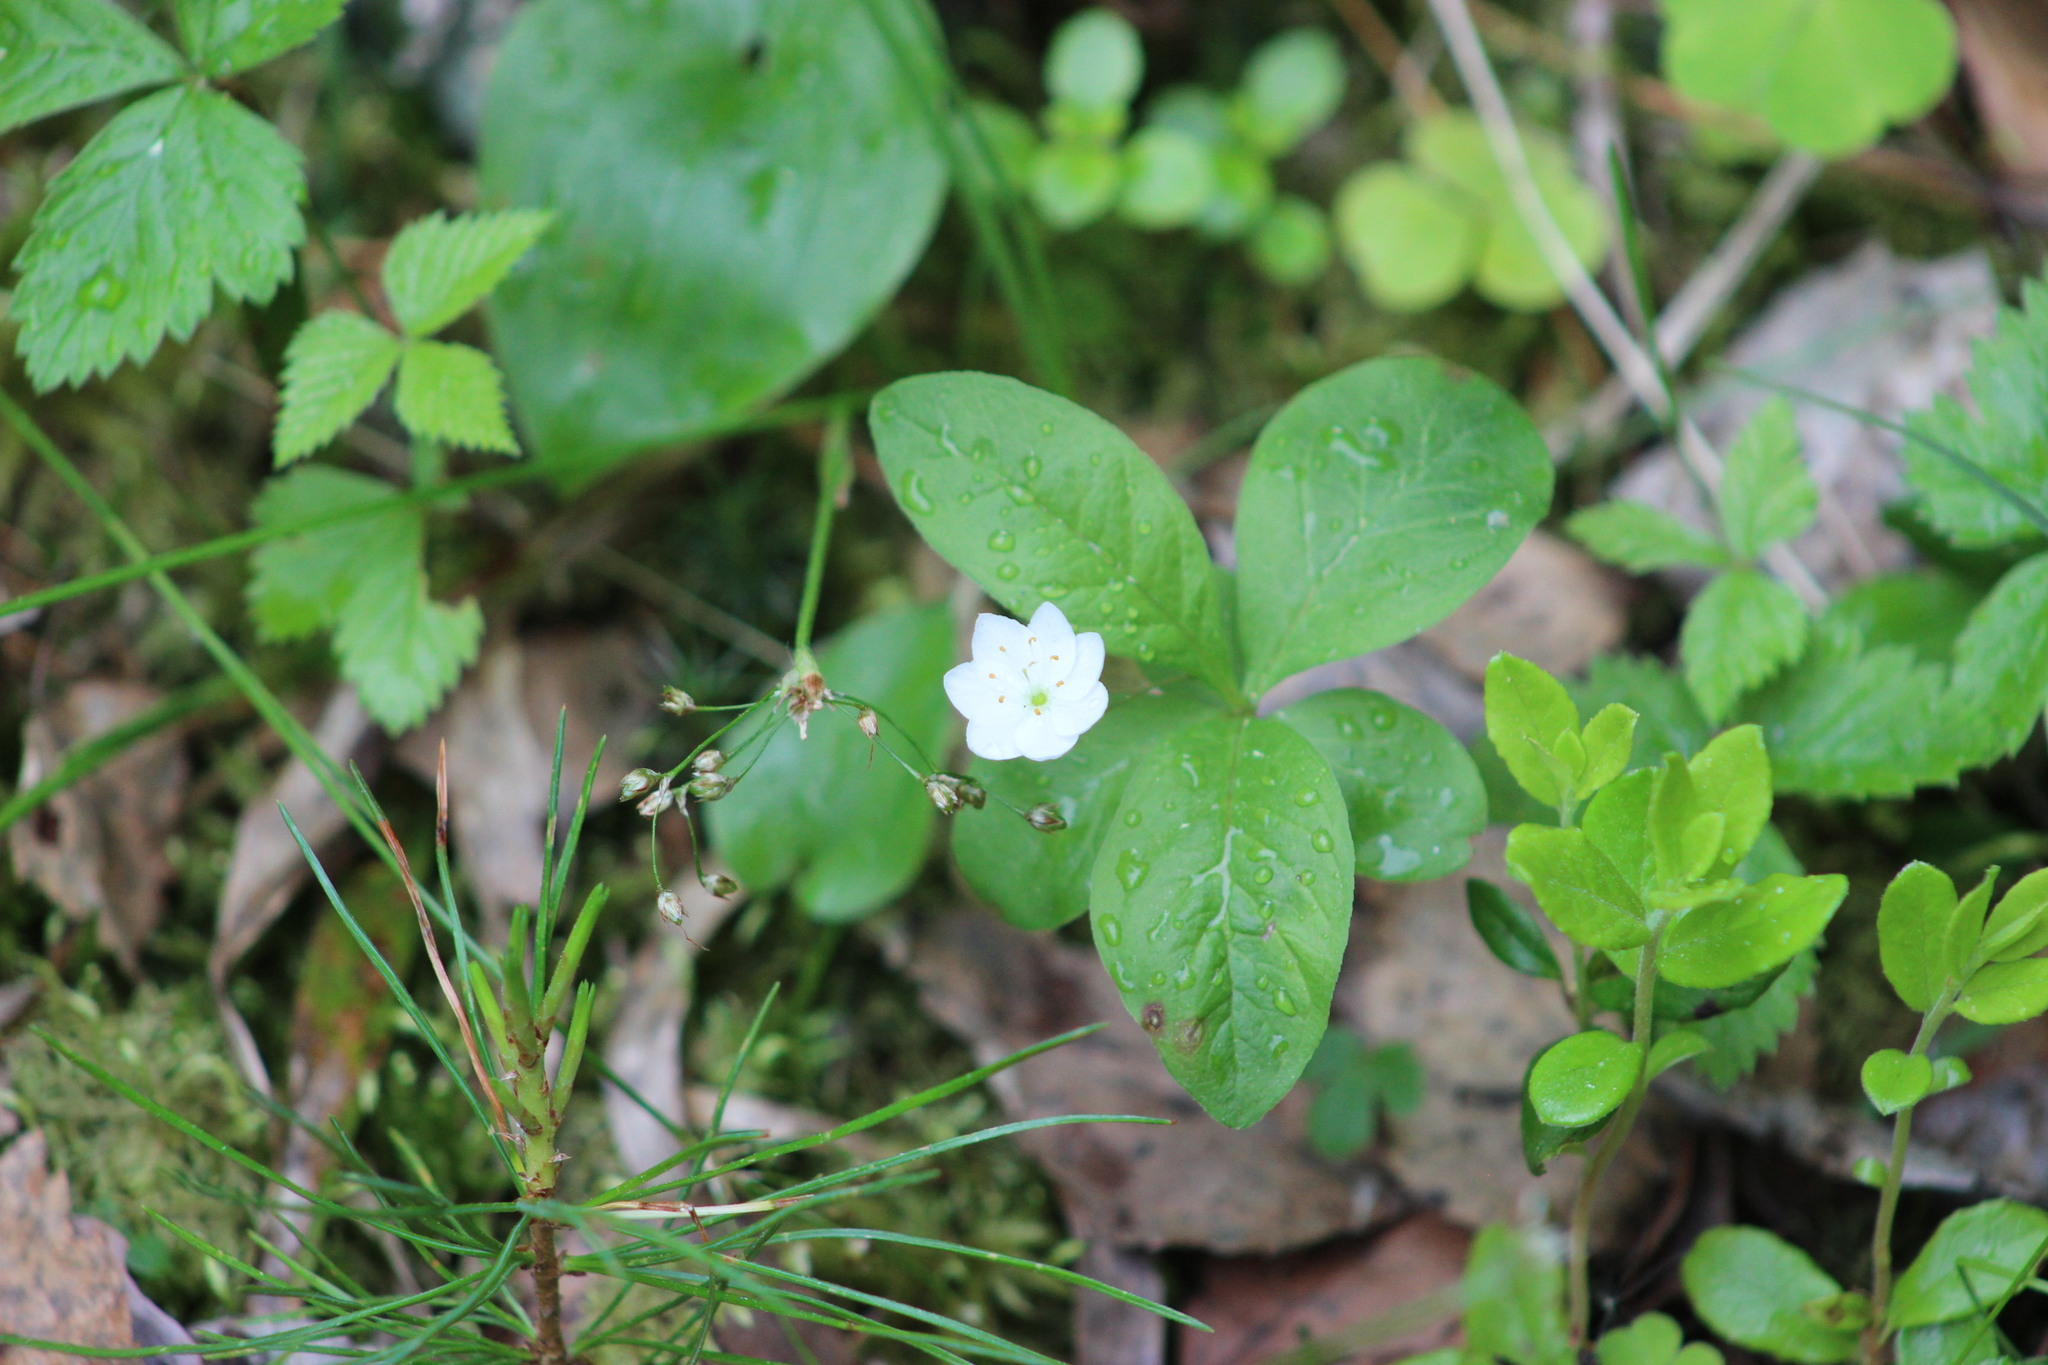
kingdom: Plantae
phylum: Tracheophyta
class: Magnoliopsida
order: Ericales
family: Primulaceae
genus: Lysimachia
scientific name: Lysimachia europaea
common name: Arctic starflower
